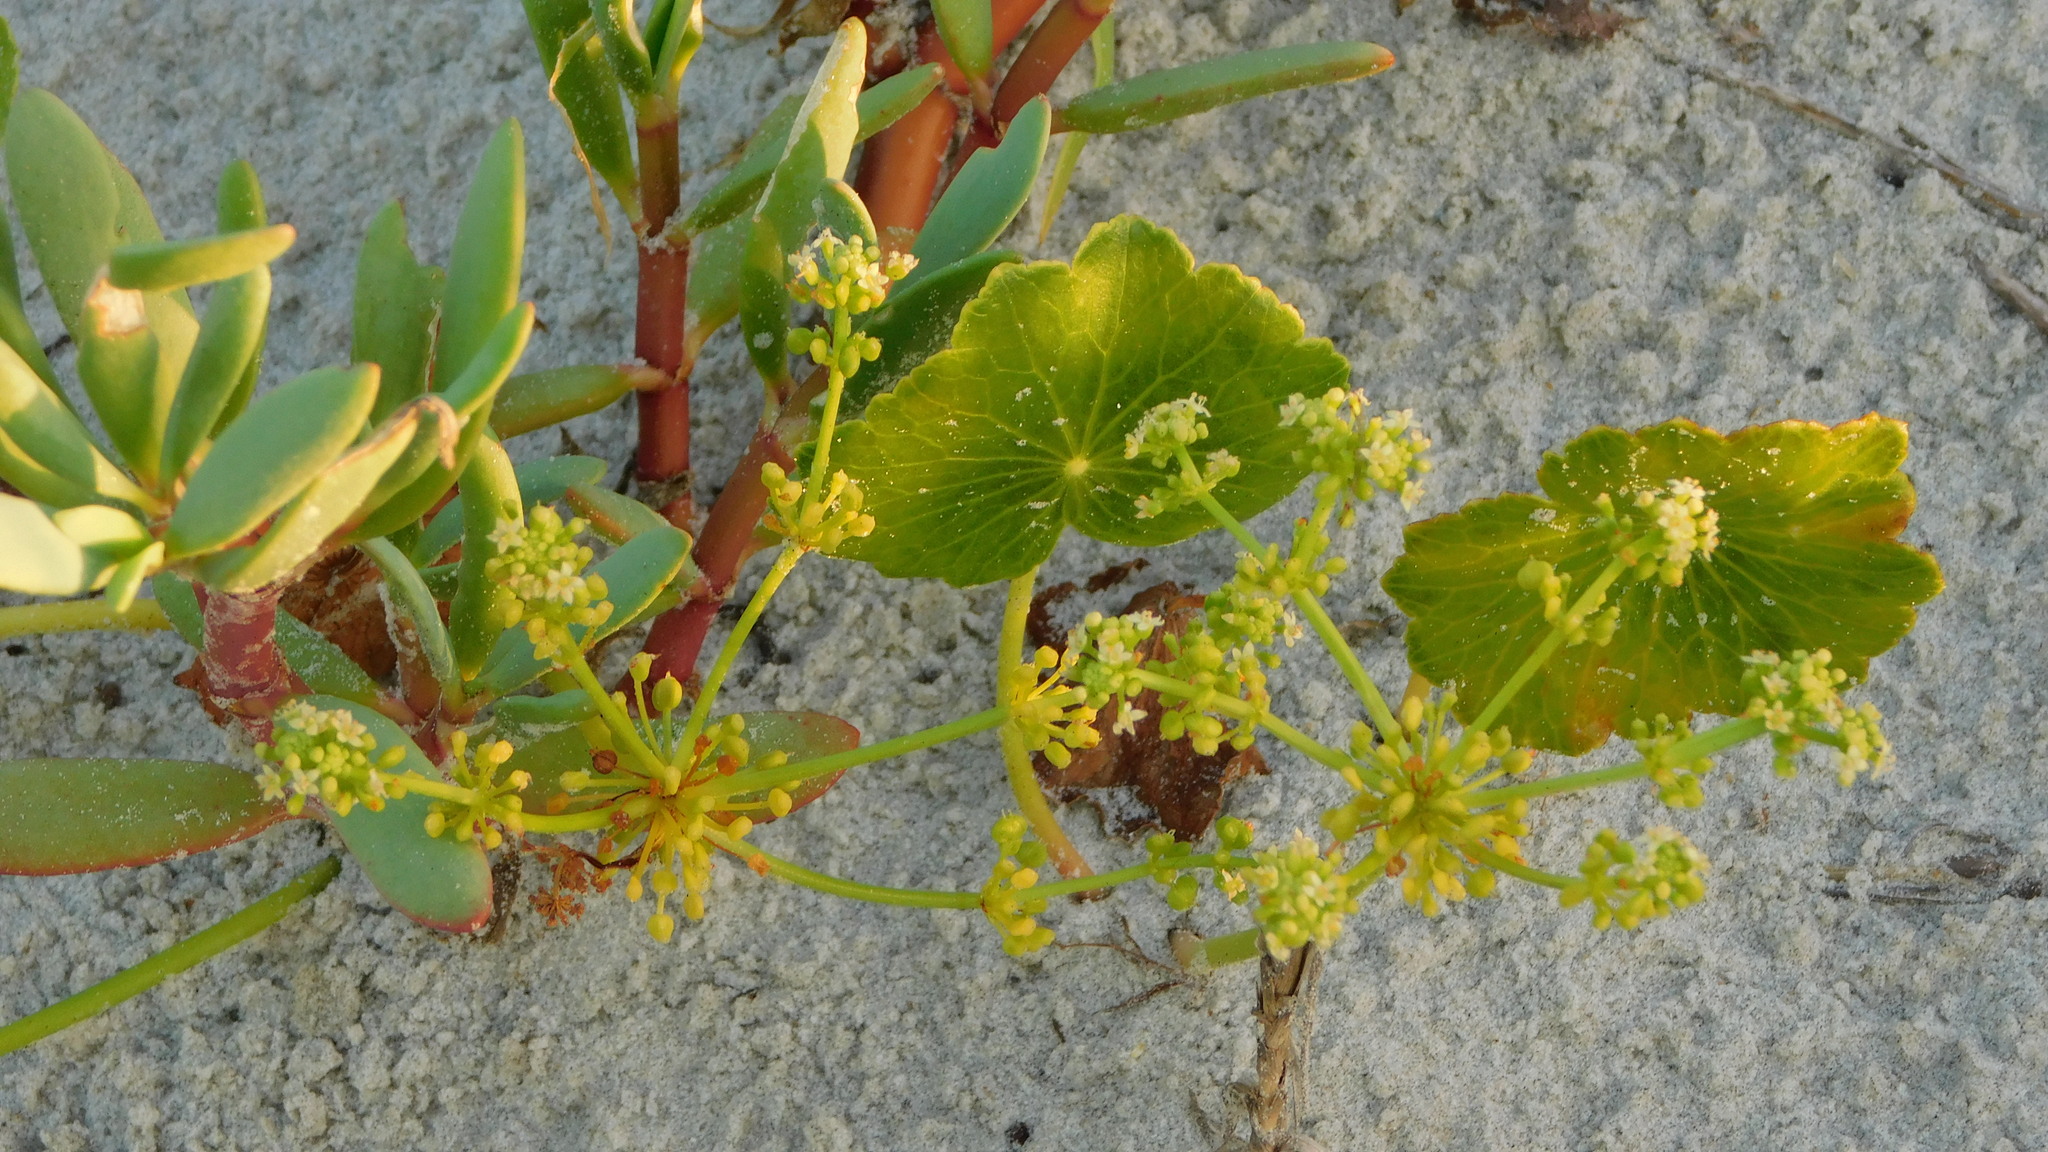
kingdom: Plantae
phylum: Tracheophyta
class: Magnoliopsida
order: Apiales
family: Araliaceae
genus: Hydrocotyle
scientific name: Hydrocotyle bonariensis
